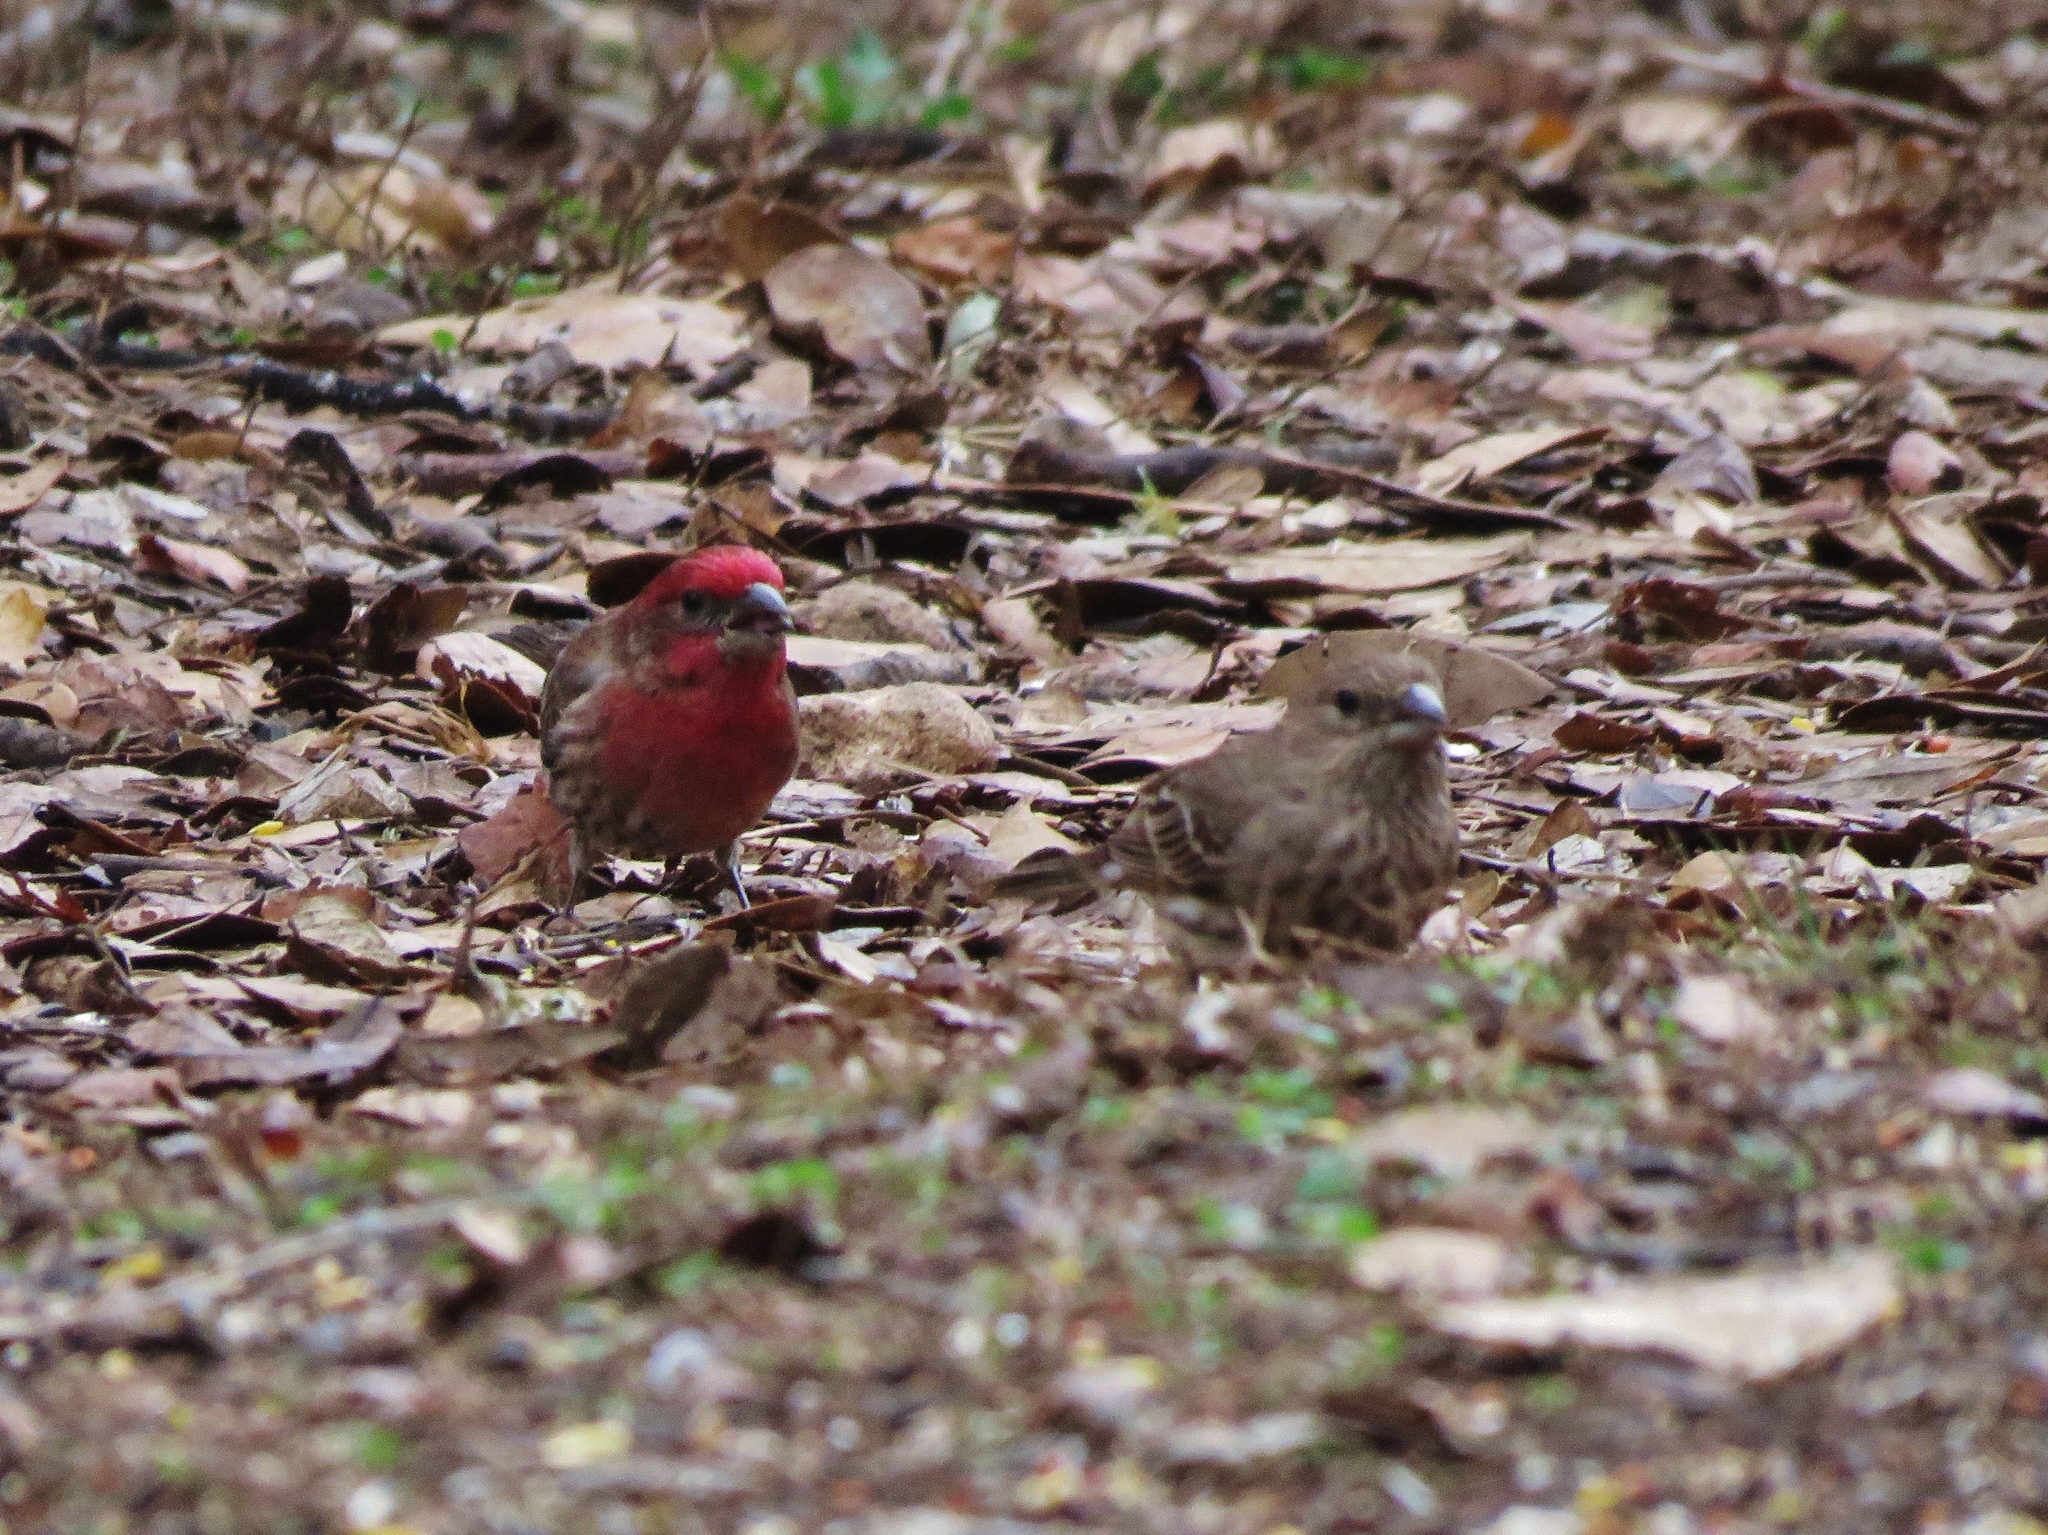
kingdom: Animalia
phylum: Chordata
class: Aves
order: Passeriformes
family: Fringillidae
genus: Haemorhous
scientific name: Haemorhous mexicanus
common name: House finch
